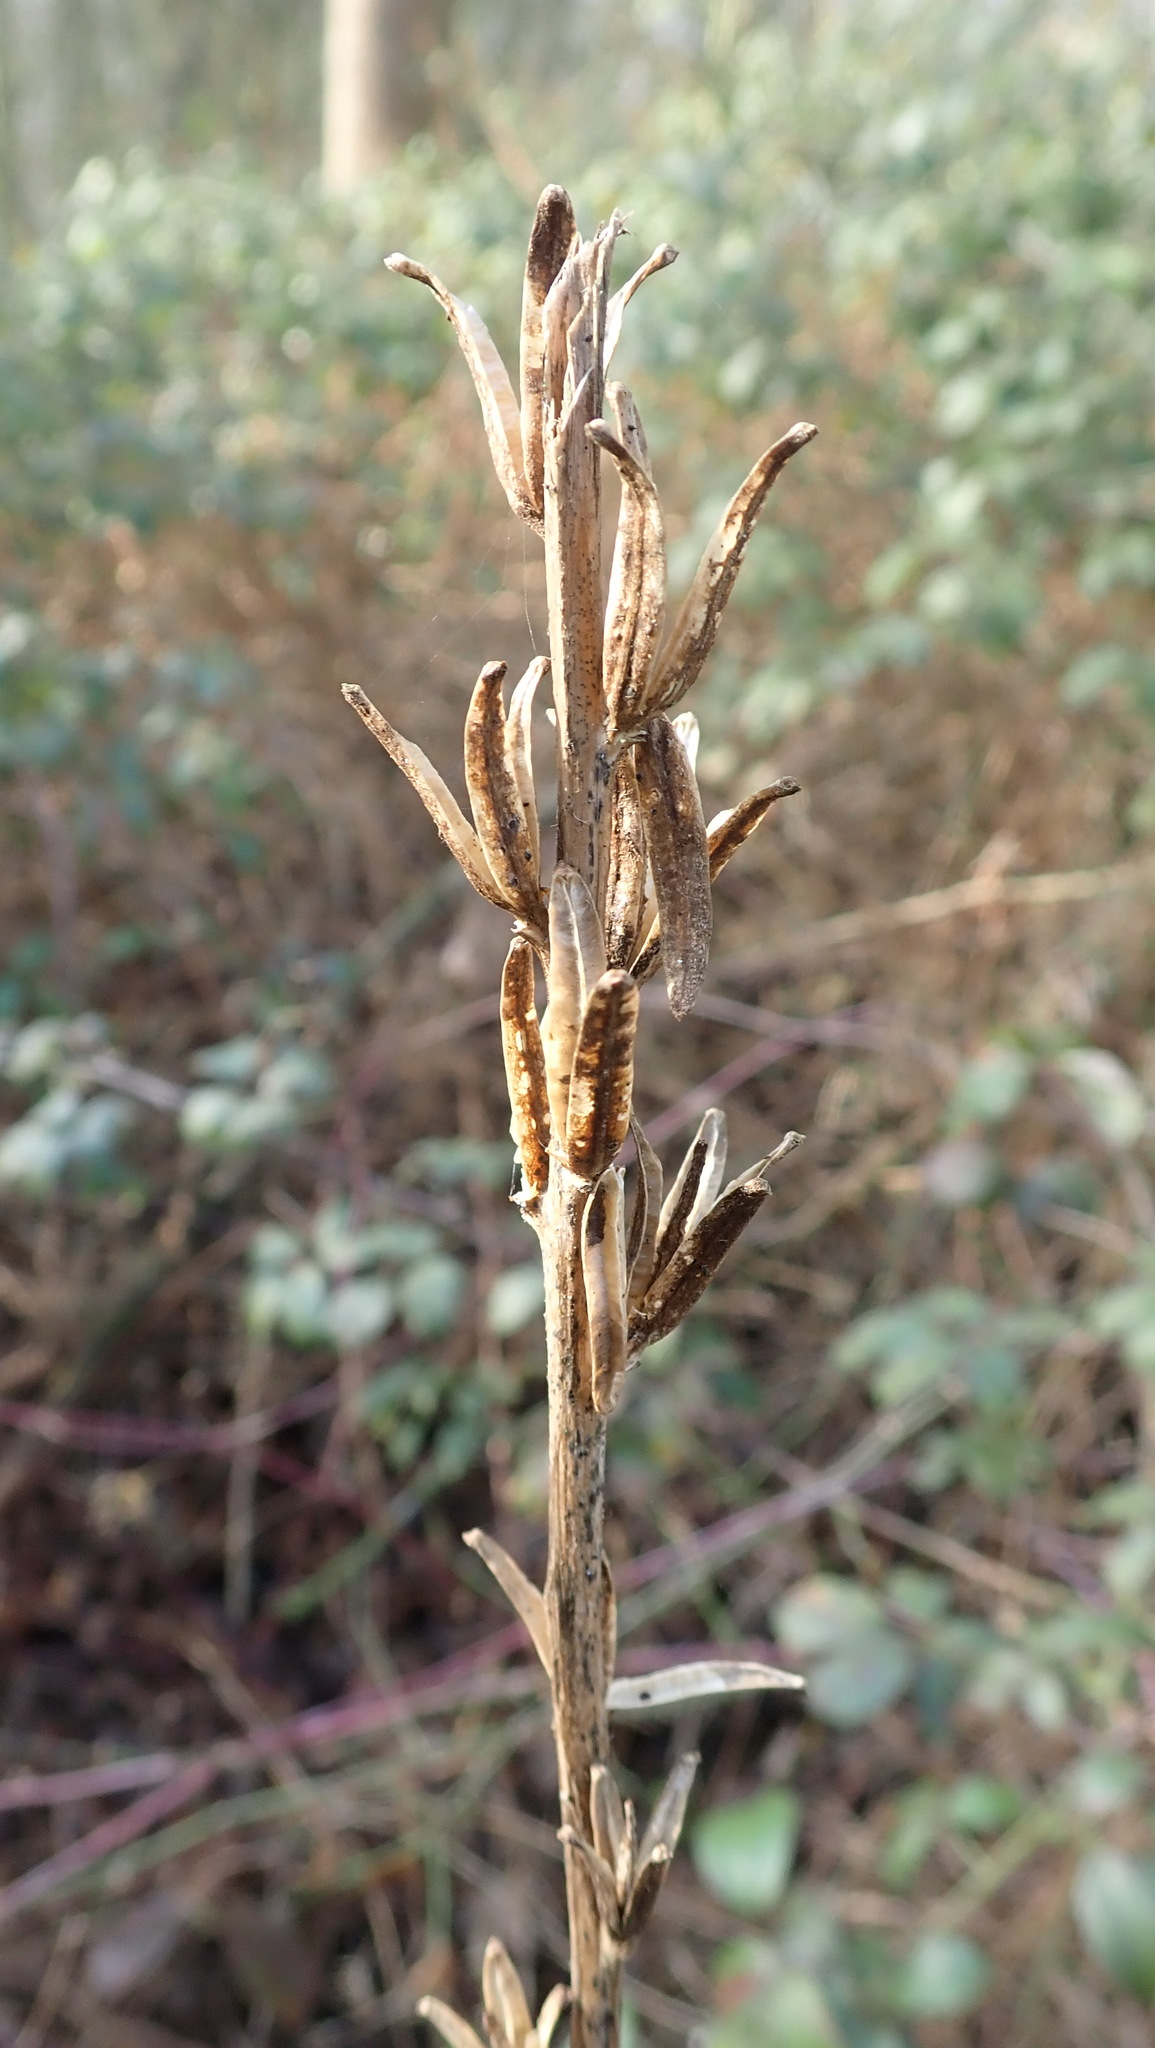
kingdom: Plantae
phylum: Tracheophyta
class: Magnoliopsida
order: Myrtales
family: Onagraceae
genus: Oenothera
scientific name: Oenothera biennis
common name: Common evening-primrose
